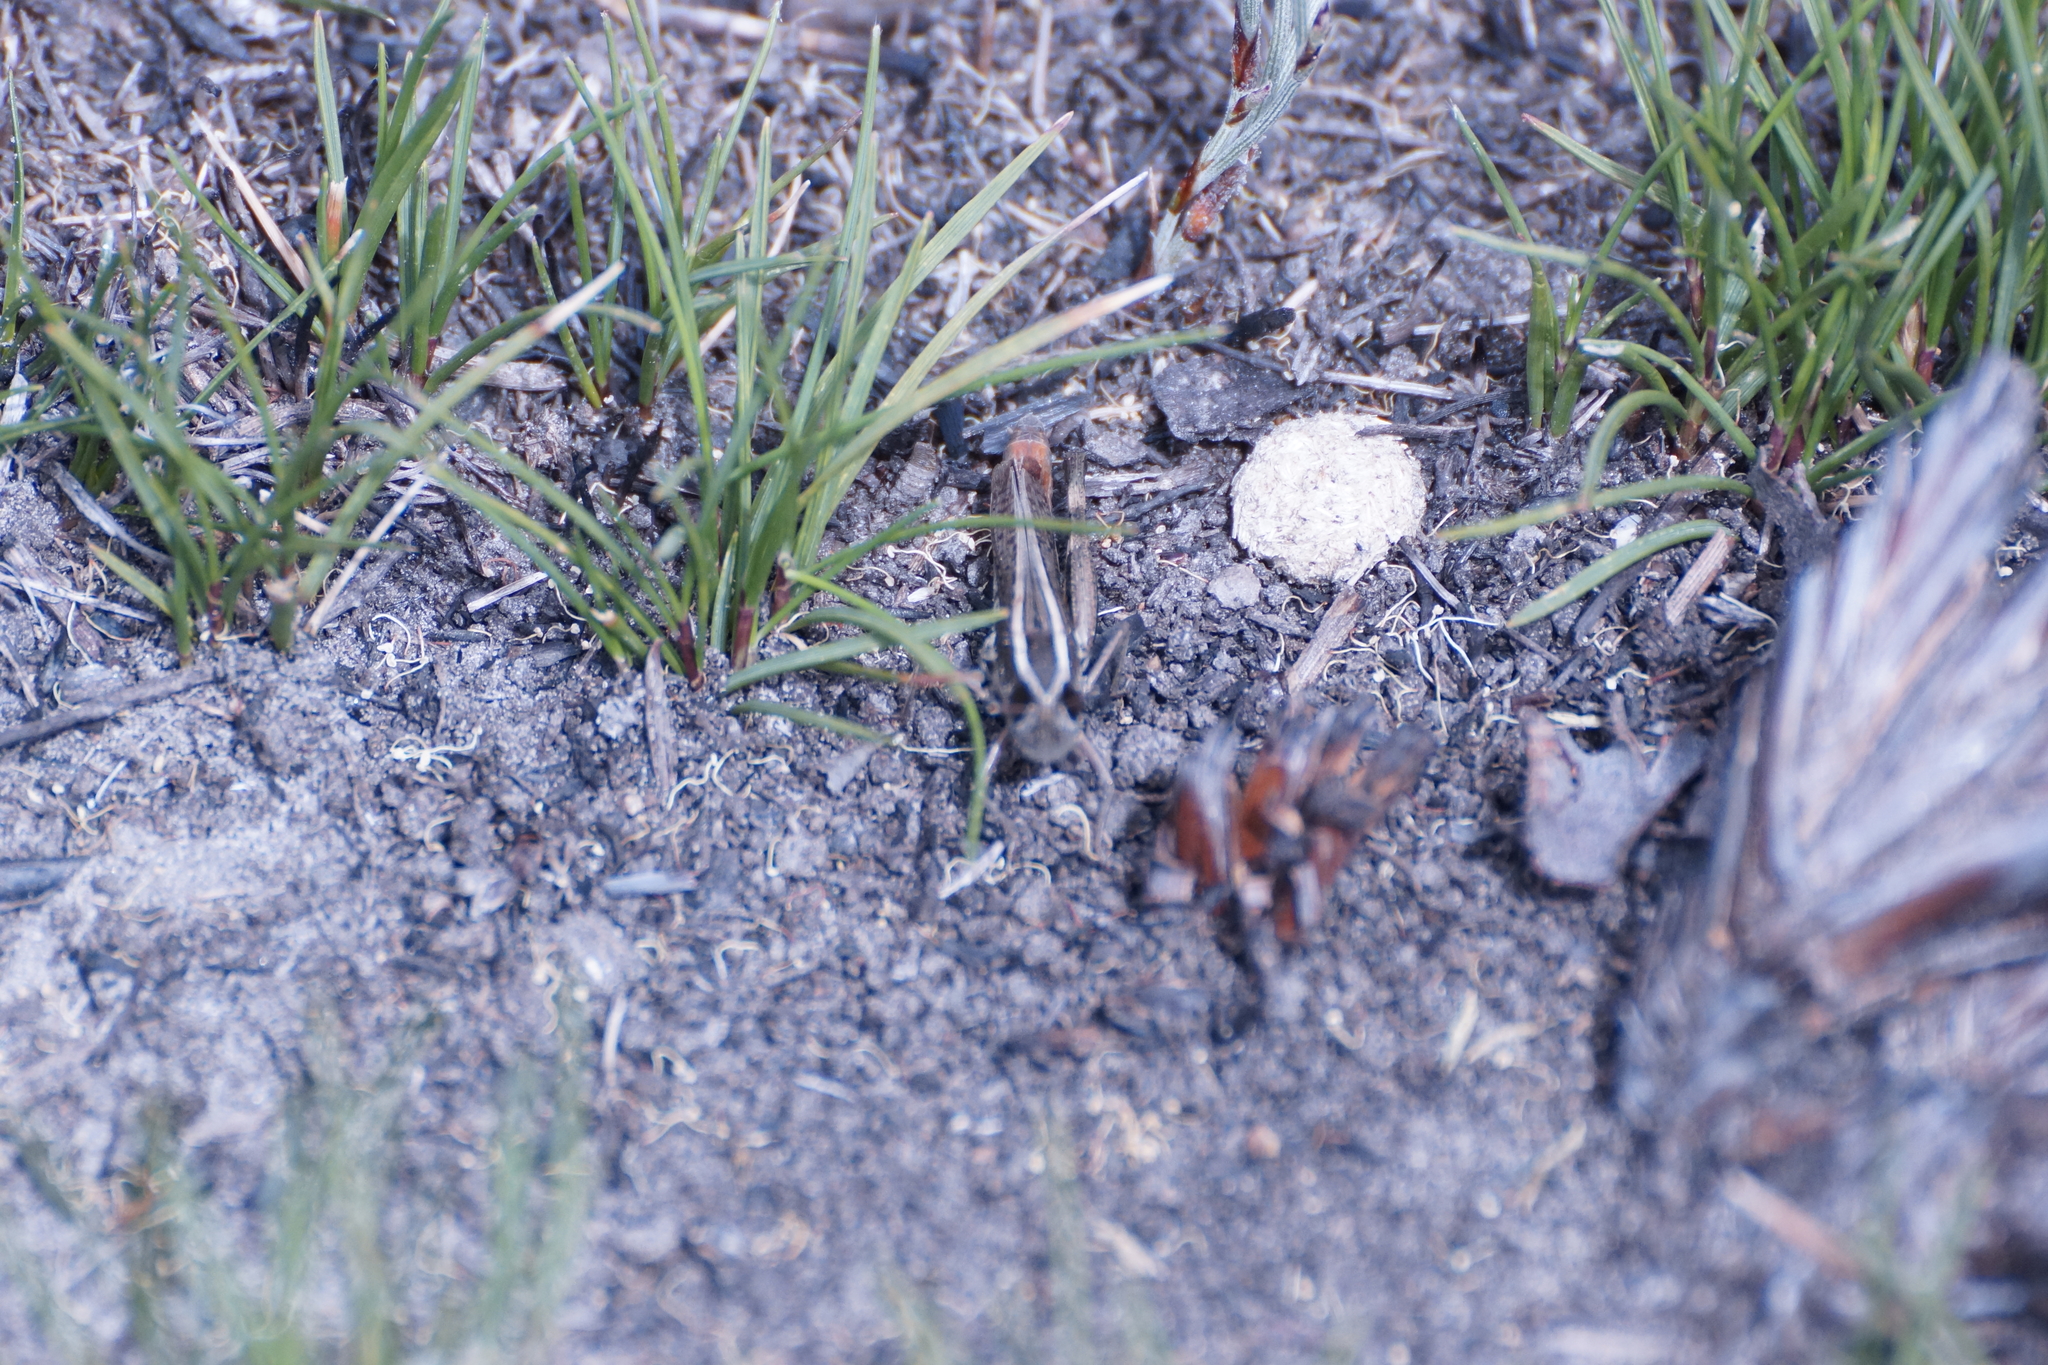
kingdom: Animalia
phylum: Arthropoda
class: Insecta
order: Orthoptera
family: Acrididae
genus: Macrotona
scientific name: Macrotona securiformis
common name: Inland macrotona
